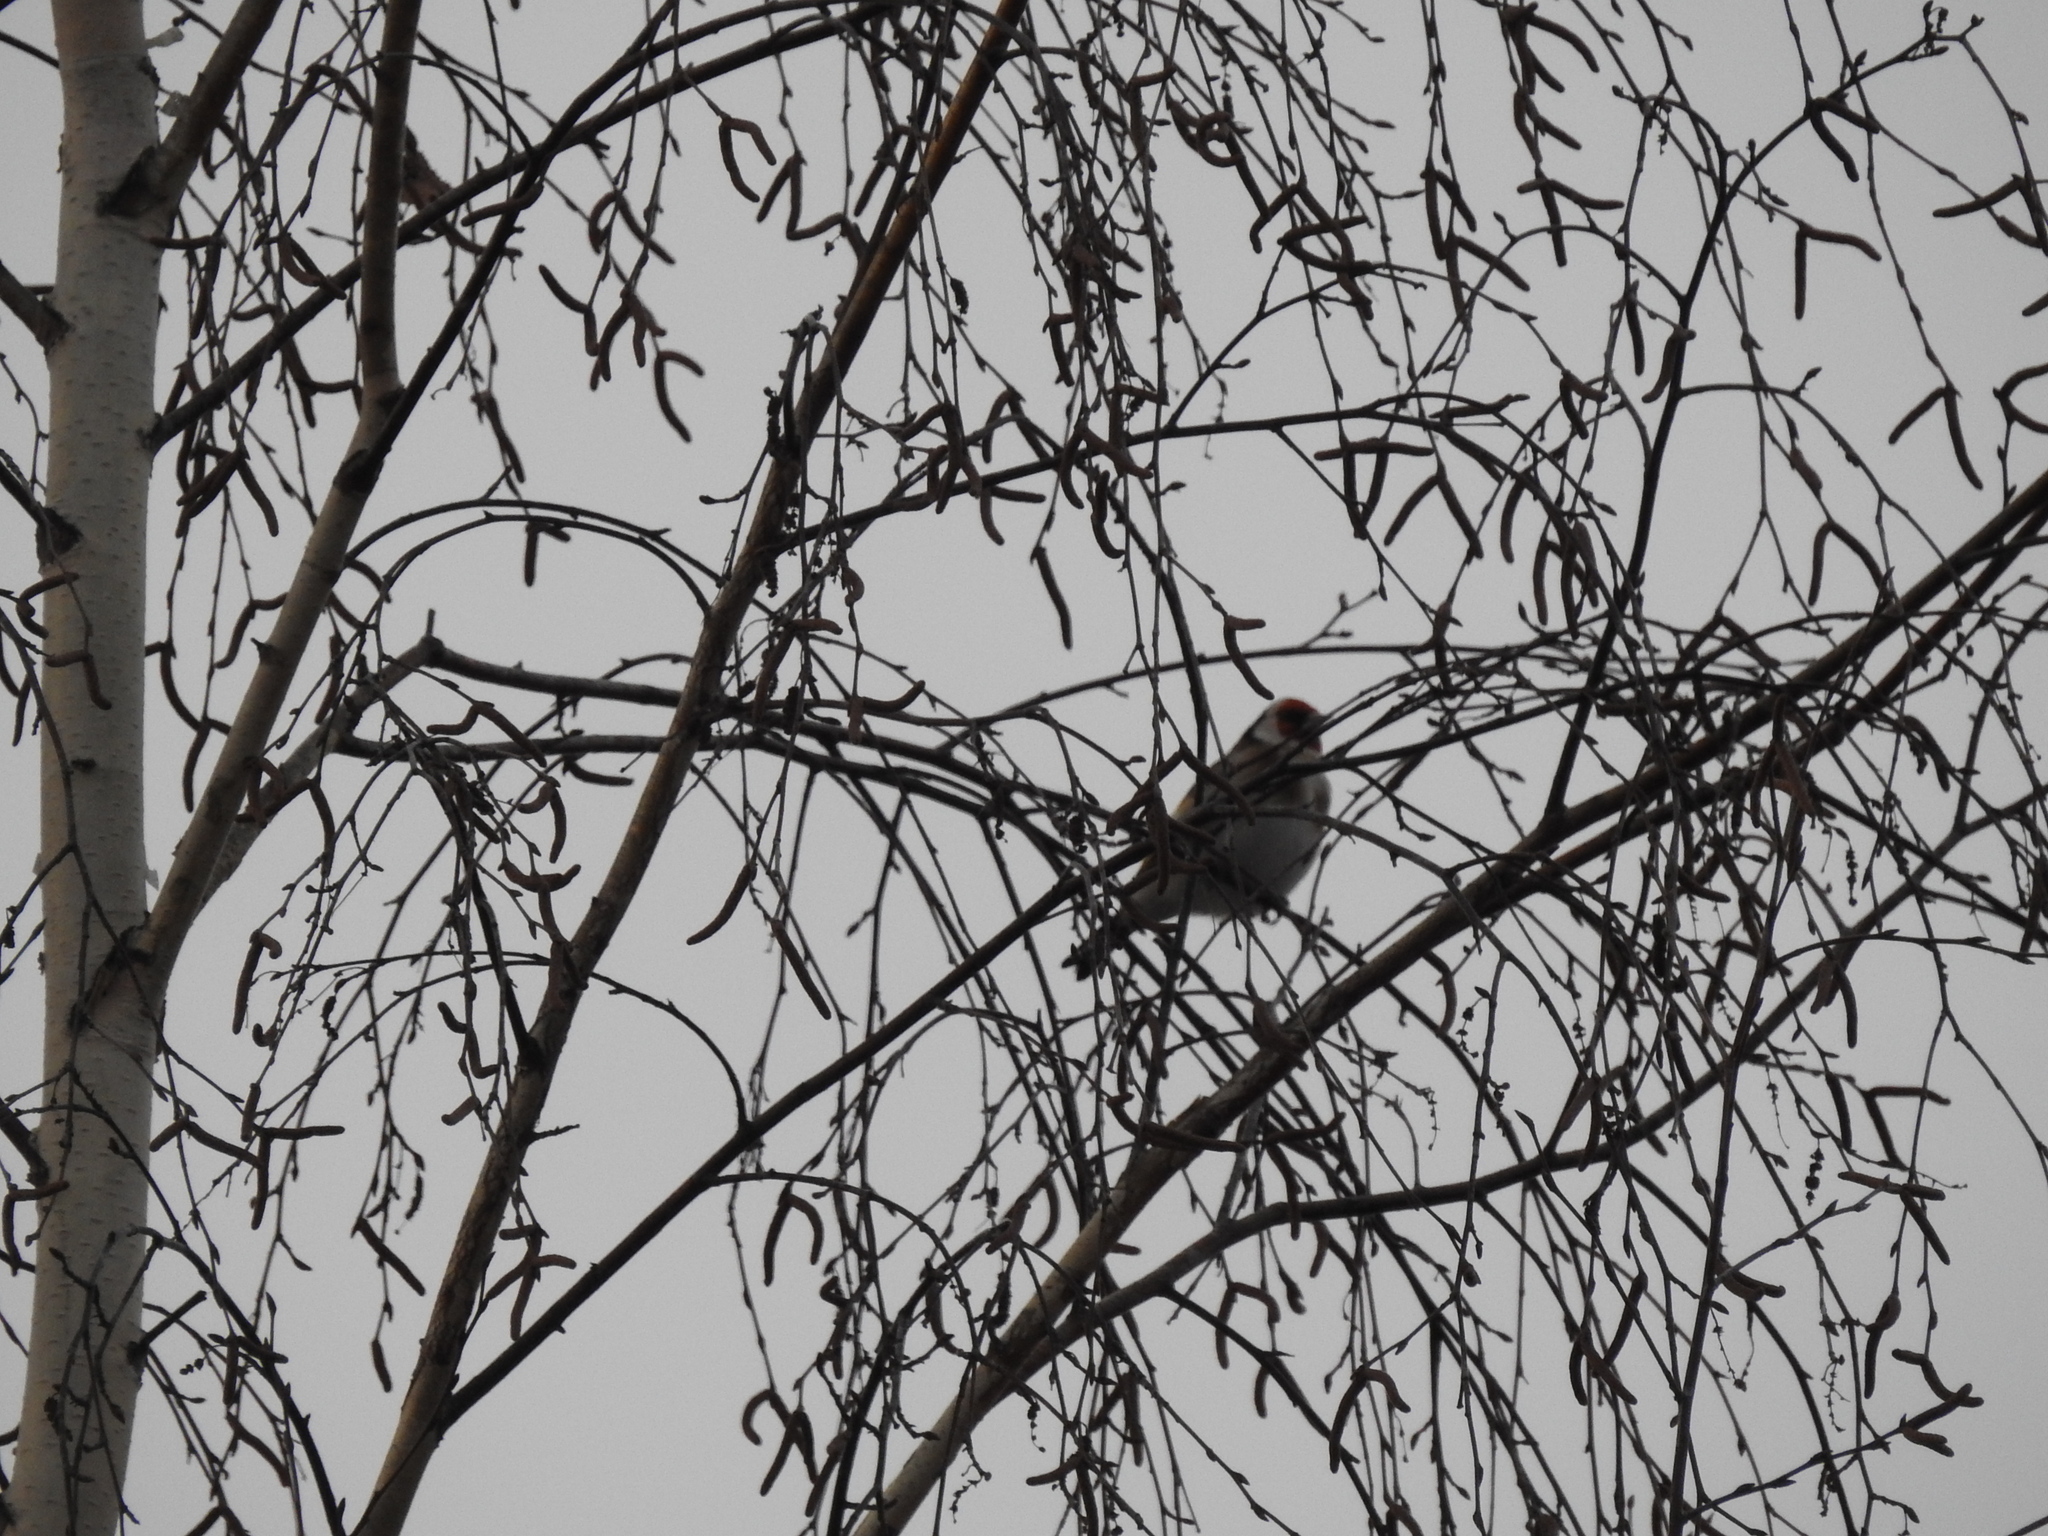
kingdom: Animalia
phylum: Chordata
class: Aves
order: Passeriformes
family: Fringillidae
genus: Carduelis
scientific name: Carduelis carduelis
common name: European goldfinch
